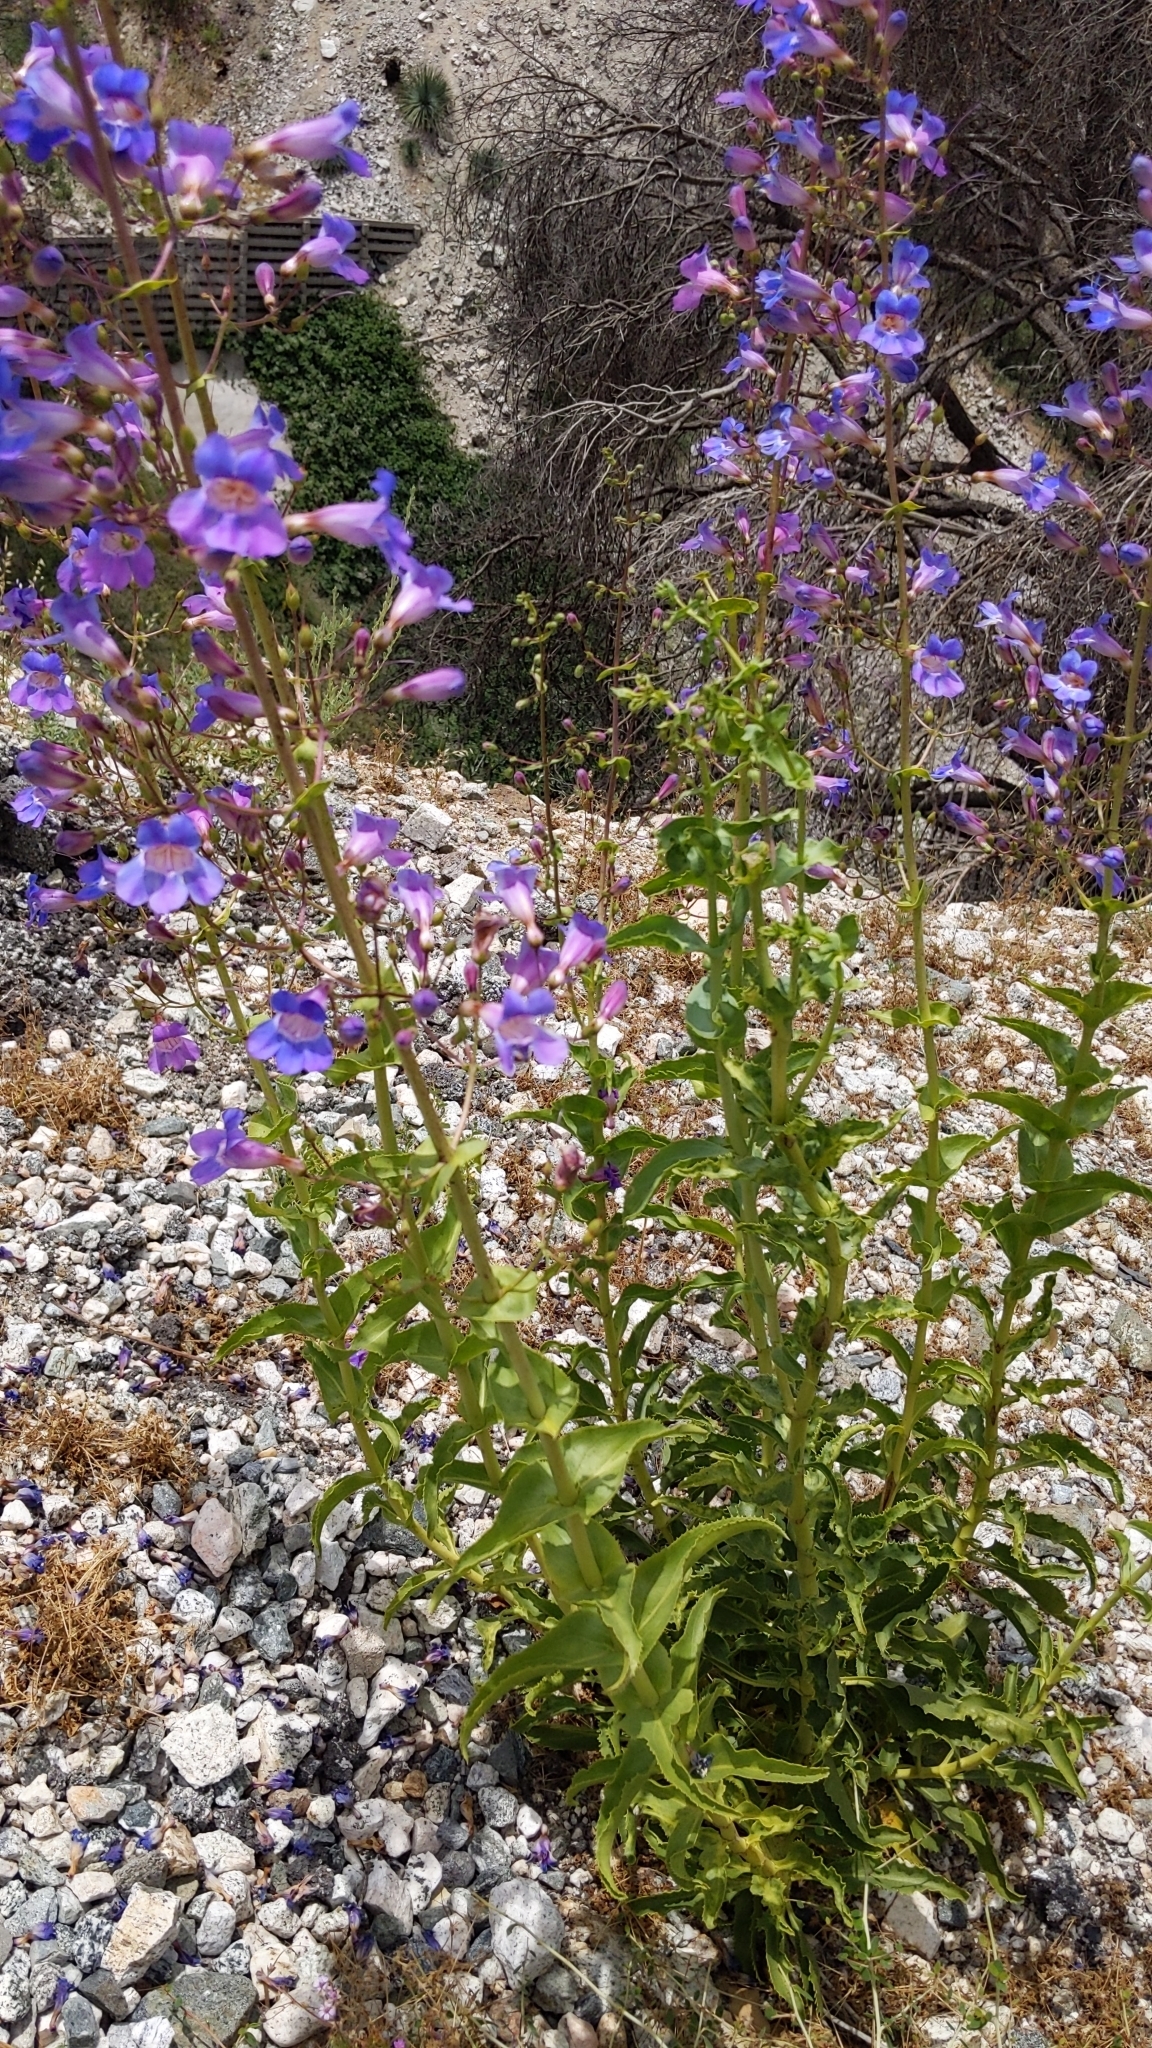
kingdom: Plantae
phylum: Tracheophyta
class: Magnoliopsida
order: Lamiales
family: Plantaginaceae
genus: Penstemon
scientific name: Penstemon spectabilis
